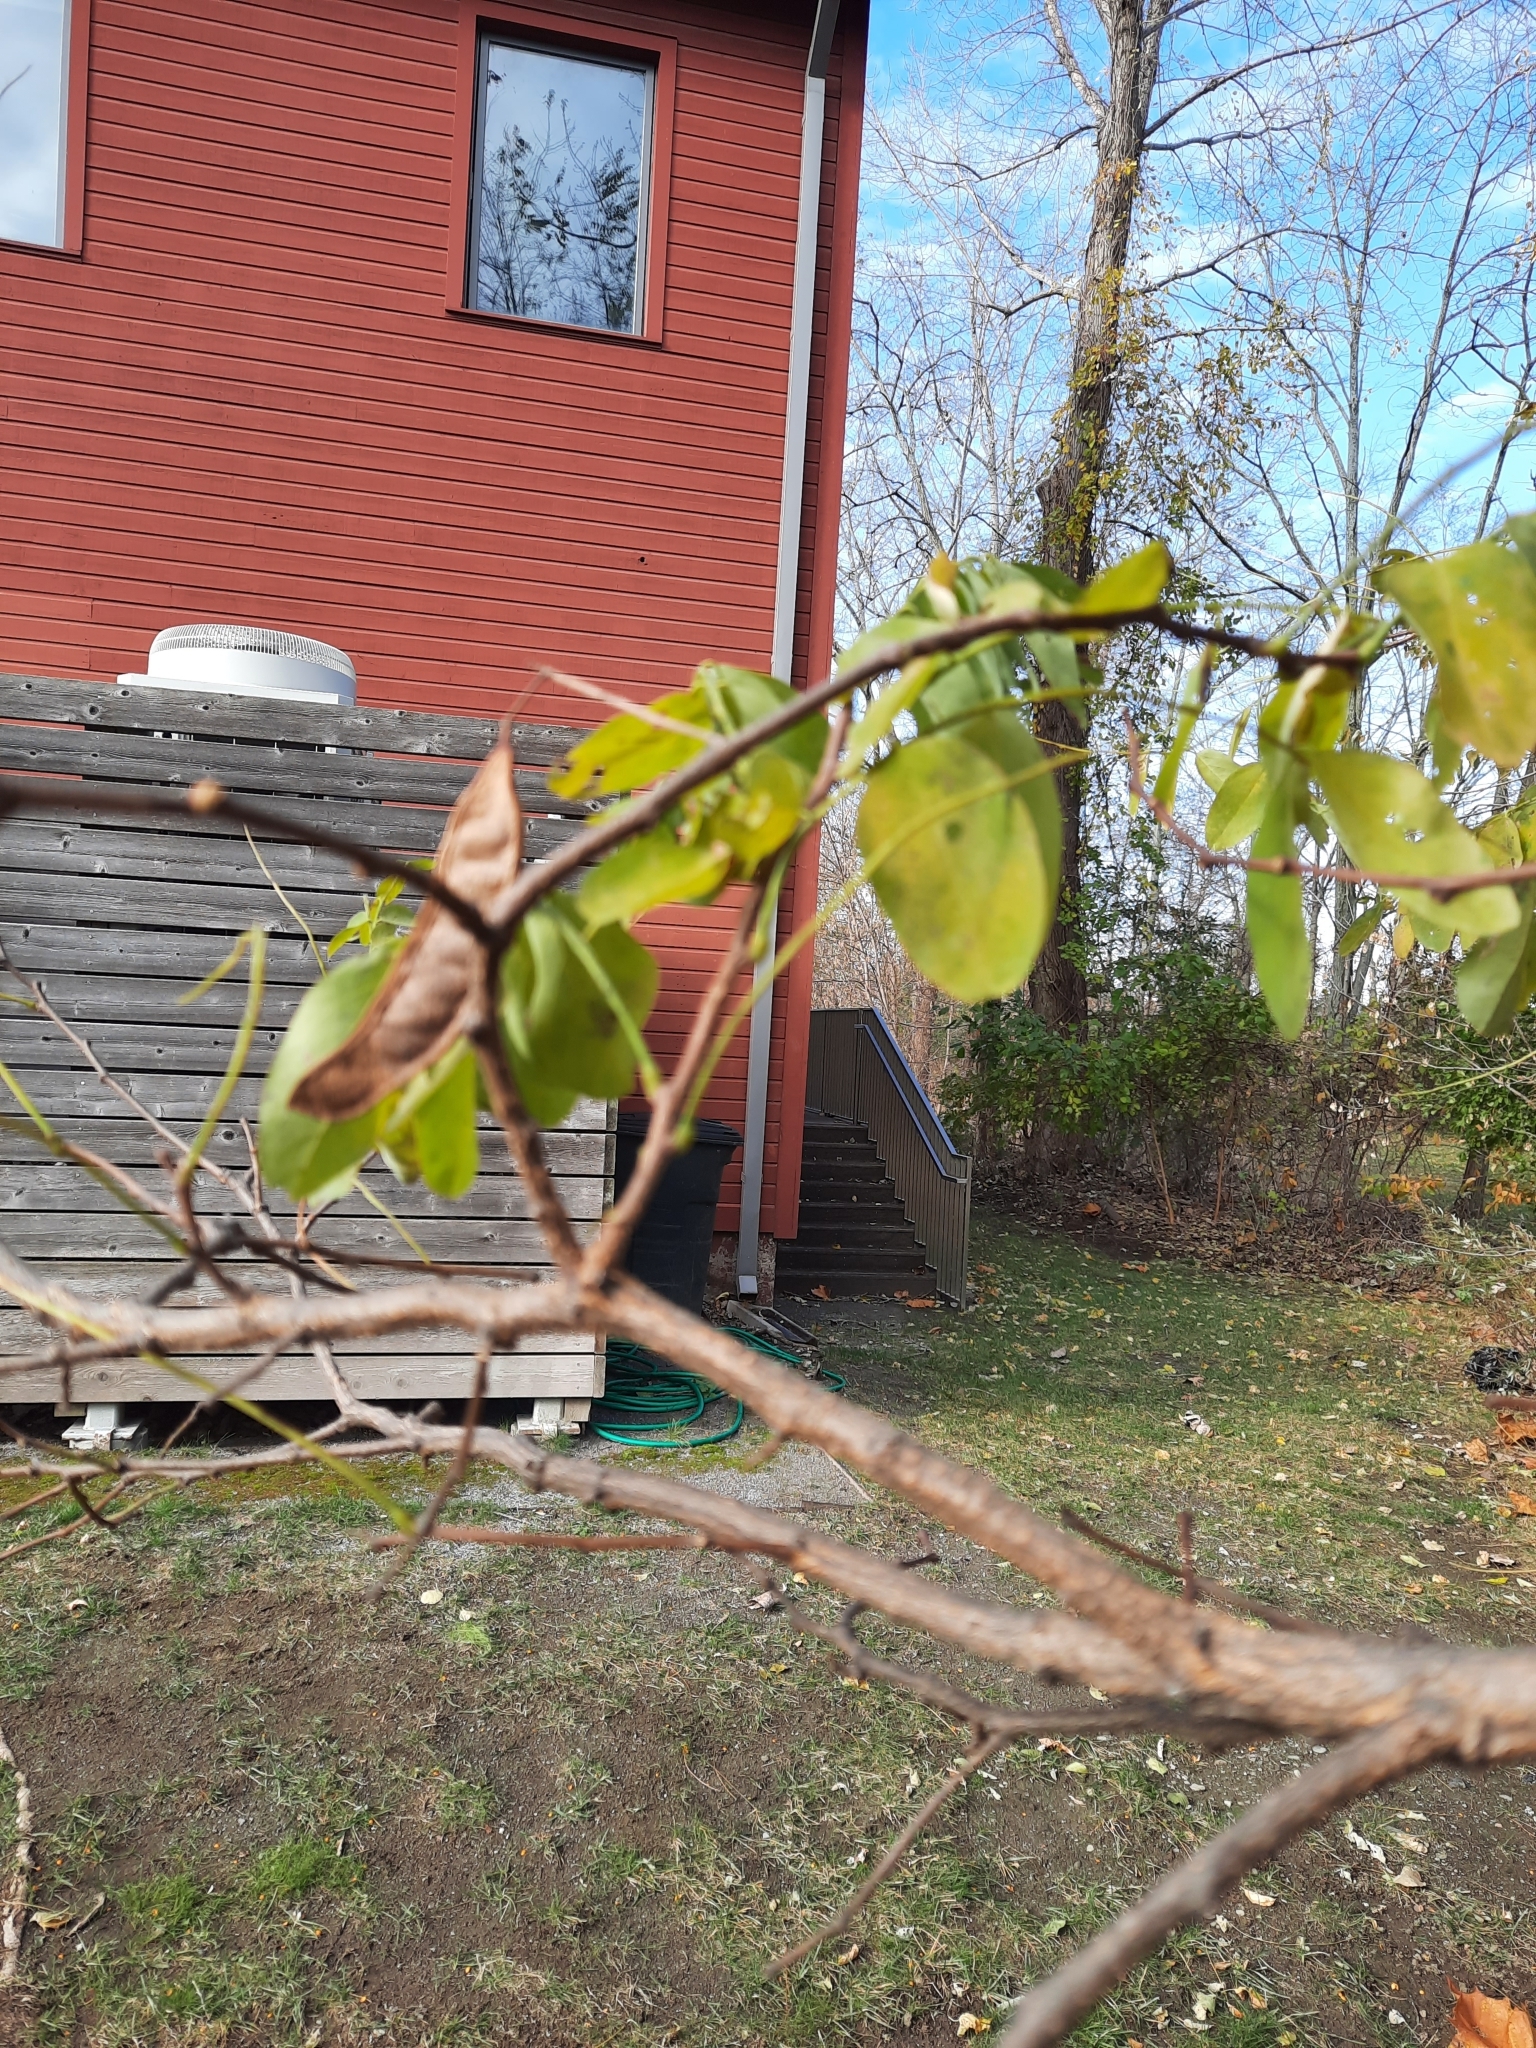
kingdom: Plantae
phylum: Tracheophyta
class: Magnoliopsida
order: Fabales
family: Fabaceae
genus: Robinia
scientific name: Robinia pseudoacacia
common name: Black locust
